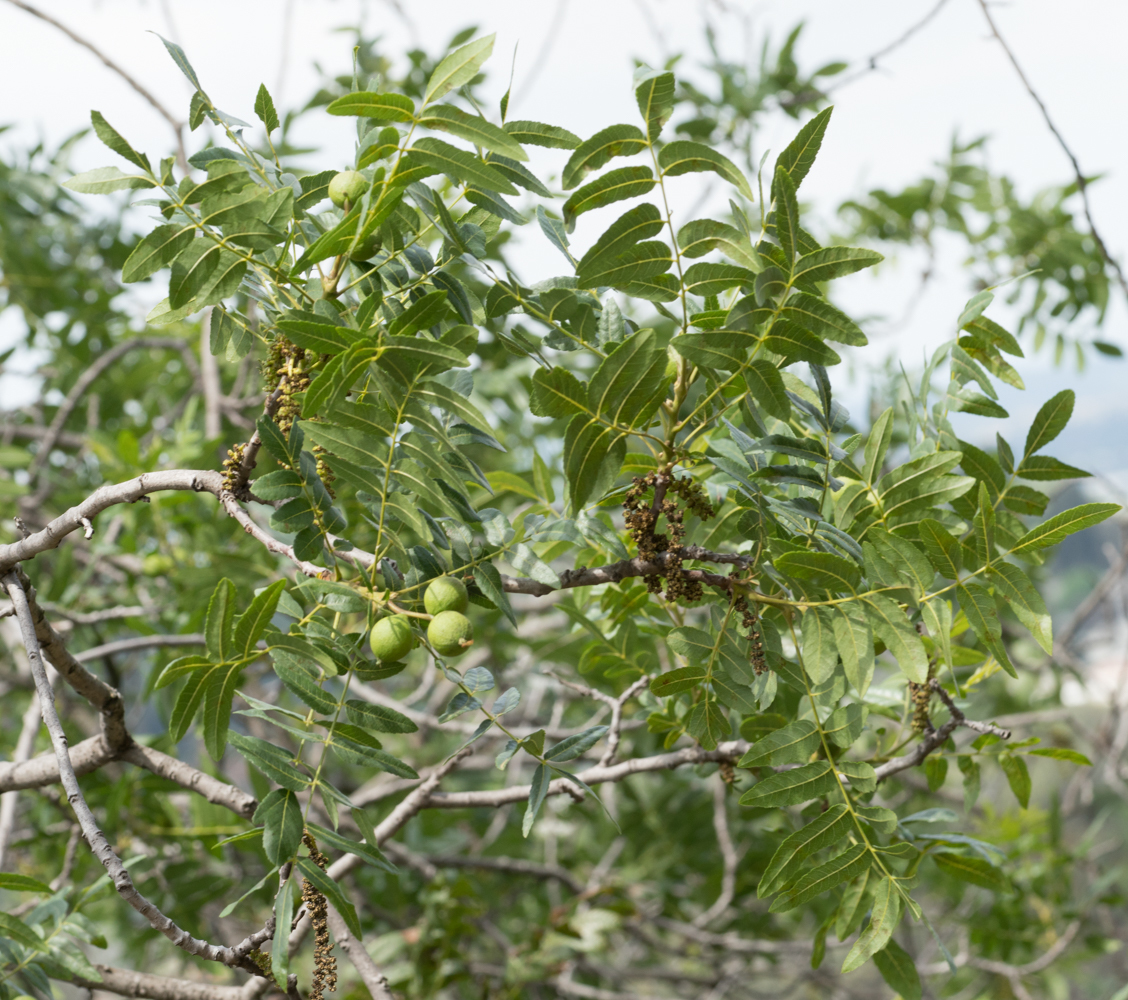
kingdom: Plantae
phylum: Tracheophyta
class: Magnoliopsida
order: Fagales
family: Juglandaceae
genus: Juglans
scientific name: Juglans californica
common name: Southern california black walnut
